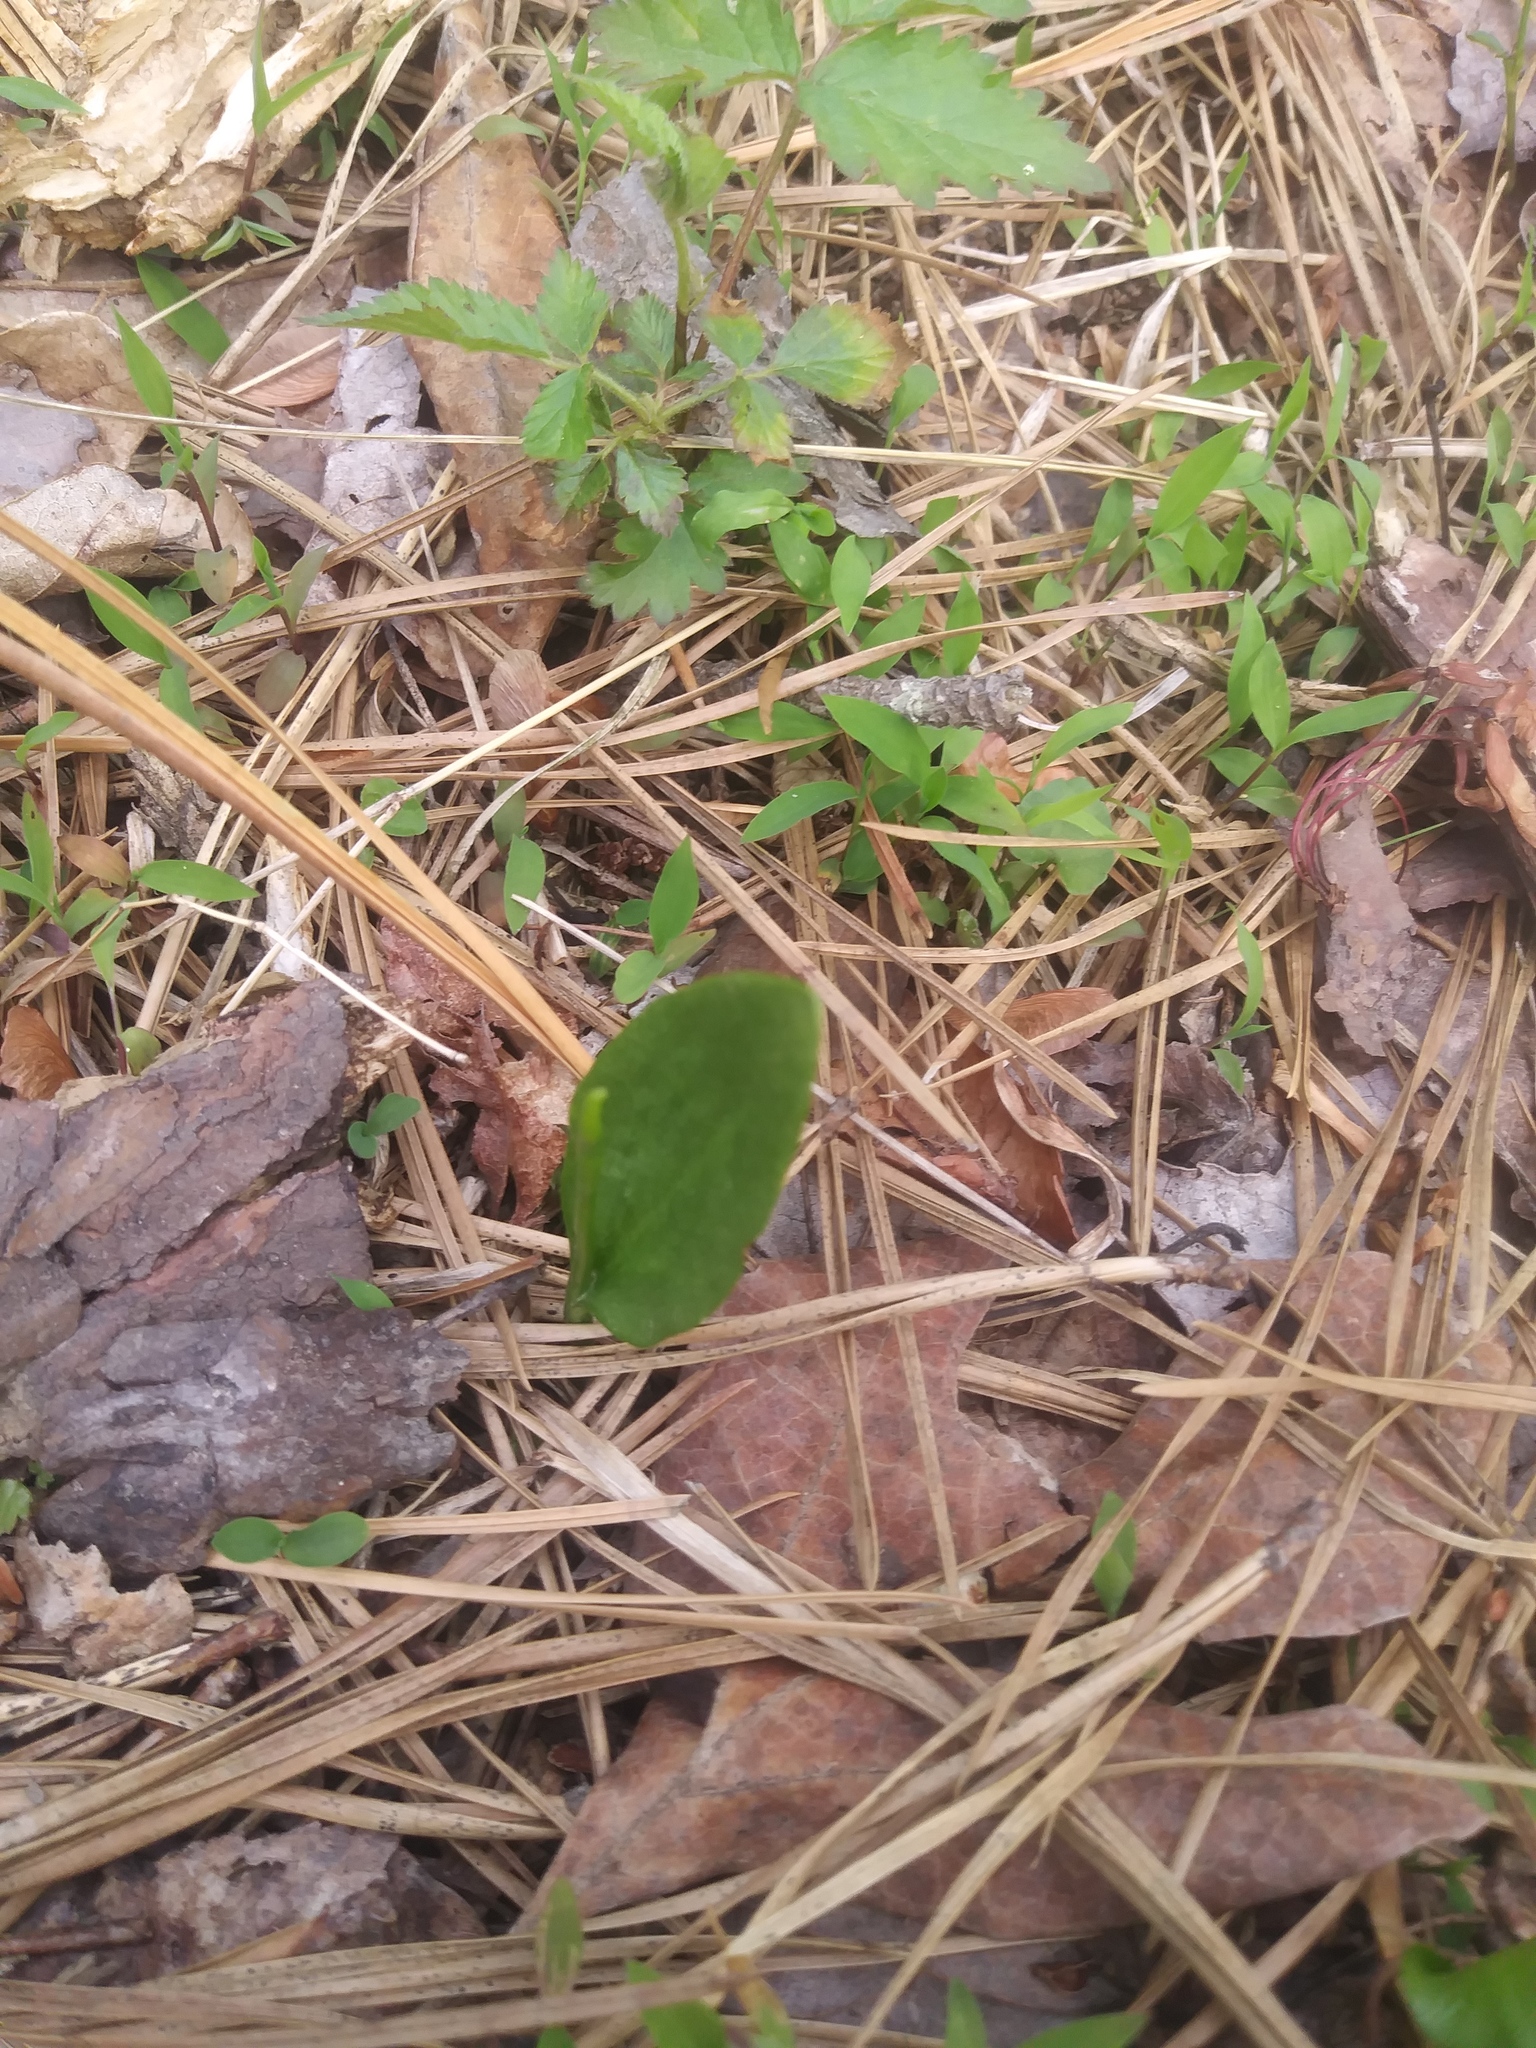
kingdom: Plantae
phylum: Tracheophyta
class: Polypodiopsida
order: Ophioglossales
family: Ophioglossaceae
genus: Ophioglossum
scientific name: Ophioglossum vulgatum
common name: Adder's-tongue
